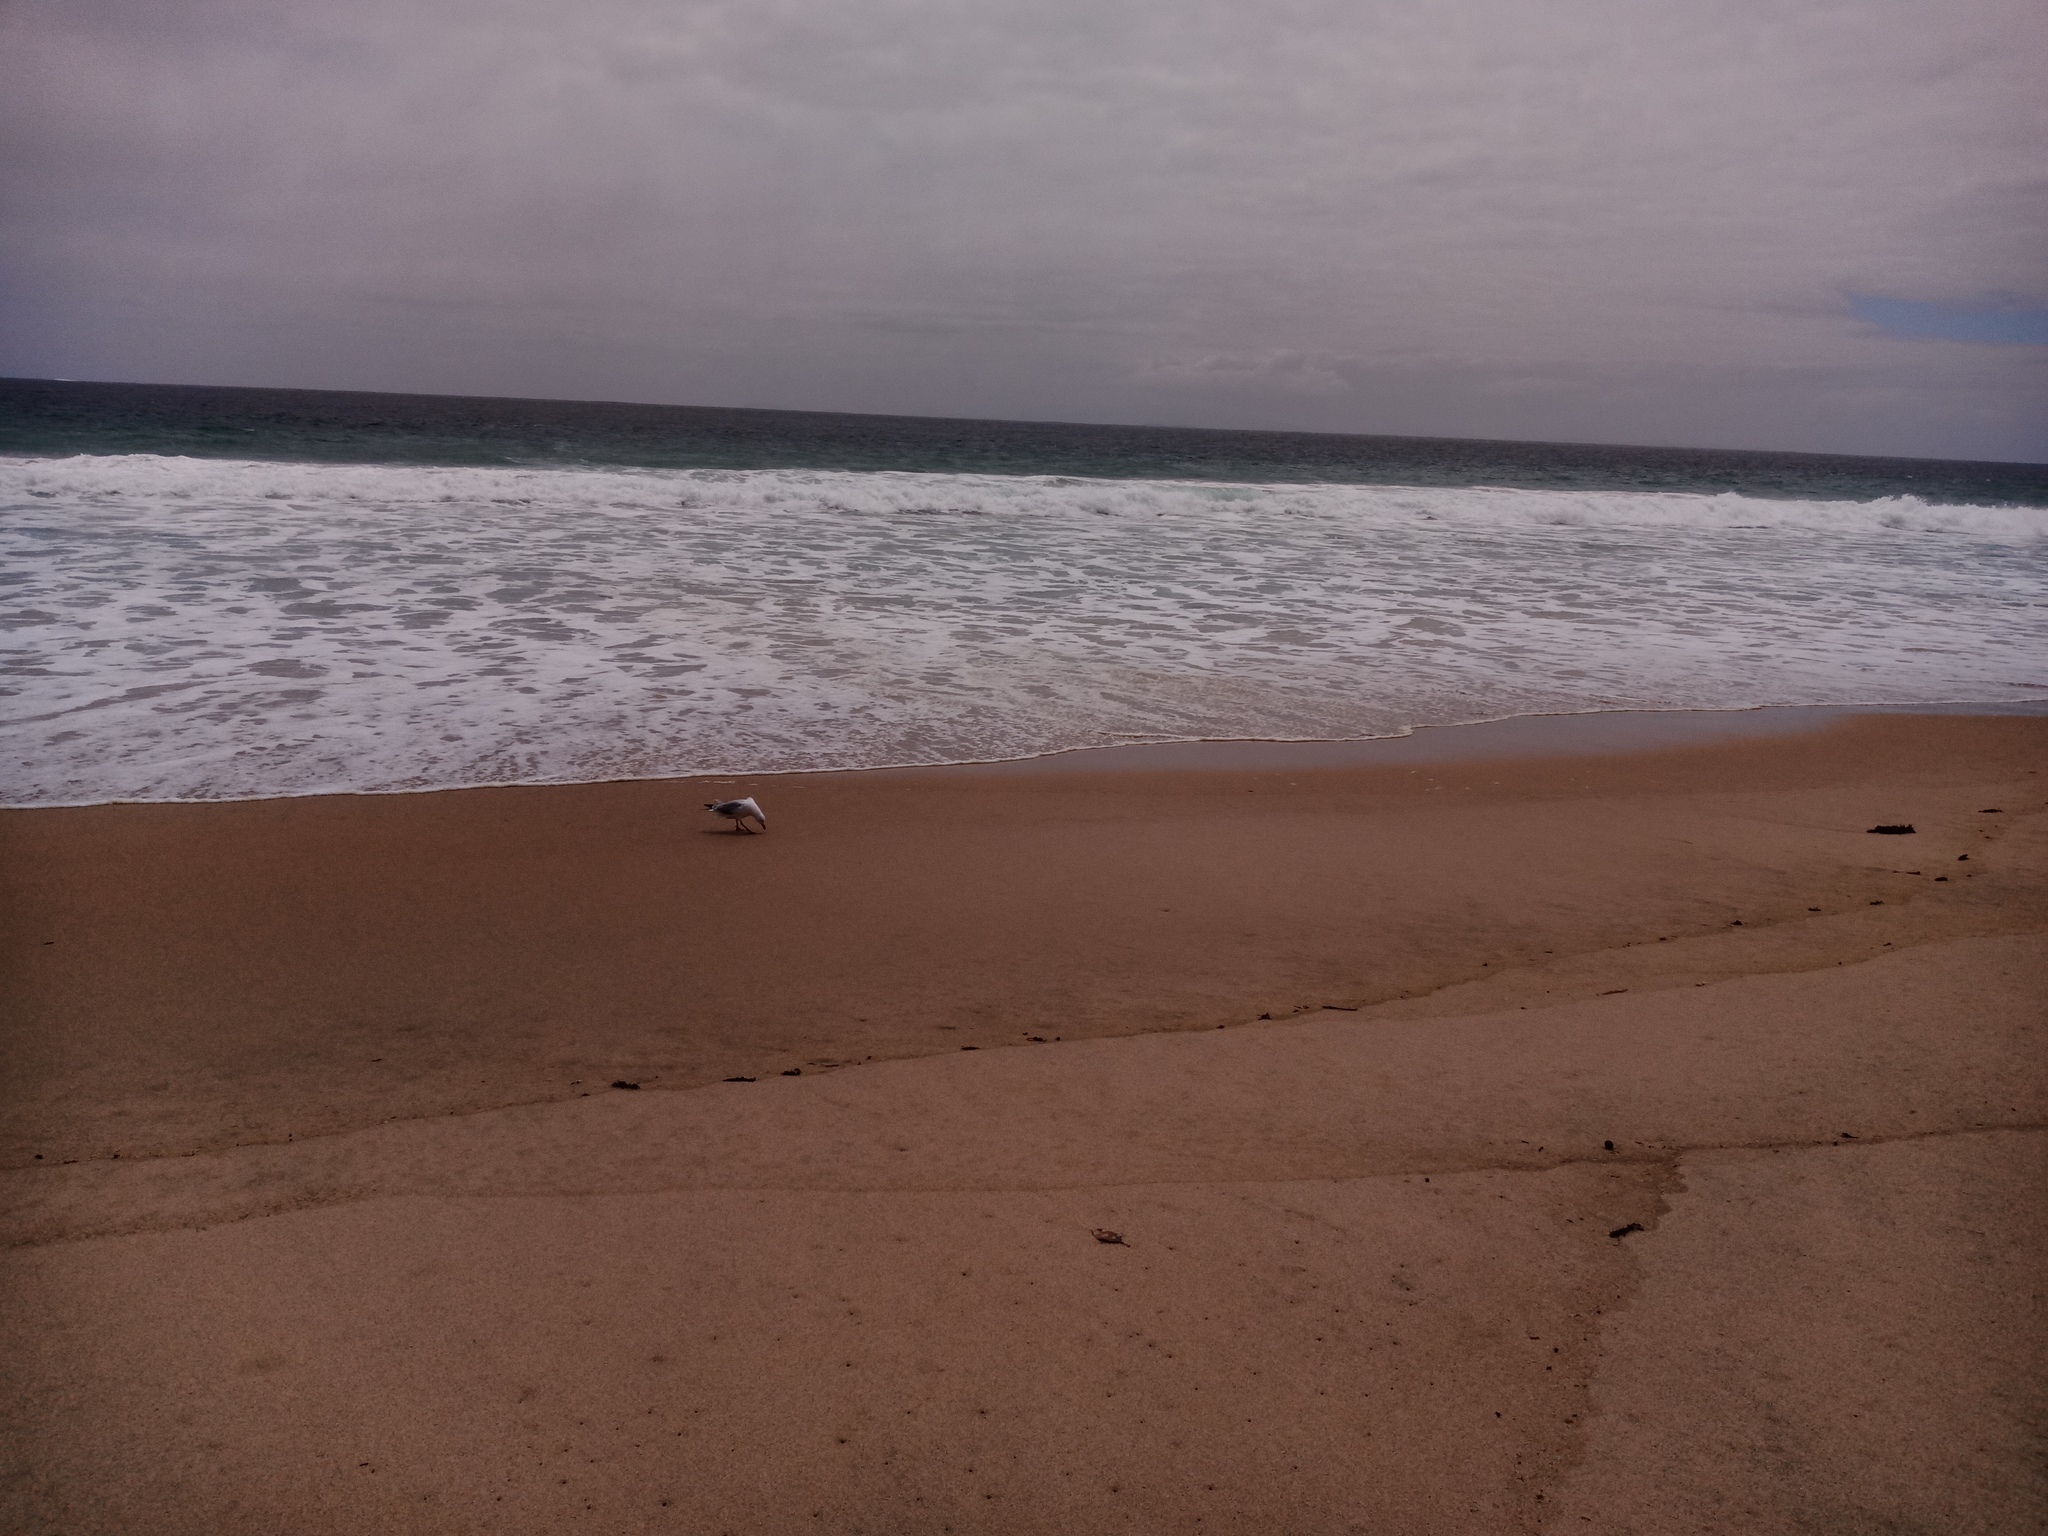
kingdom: Animalia
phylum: Chordata
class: Aves
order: Charadriiformes
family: Laridae
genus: Chroicocephalus
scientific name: Chroicocephalus novaehollandiae
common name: Silver gull
